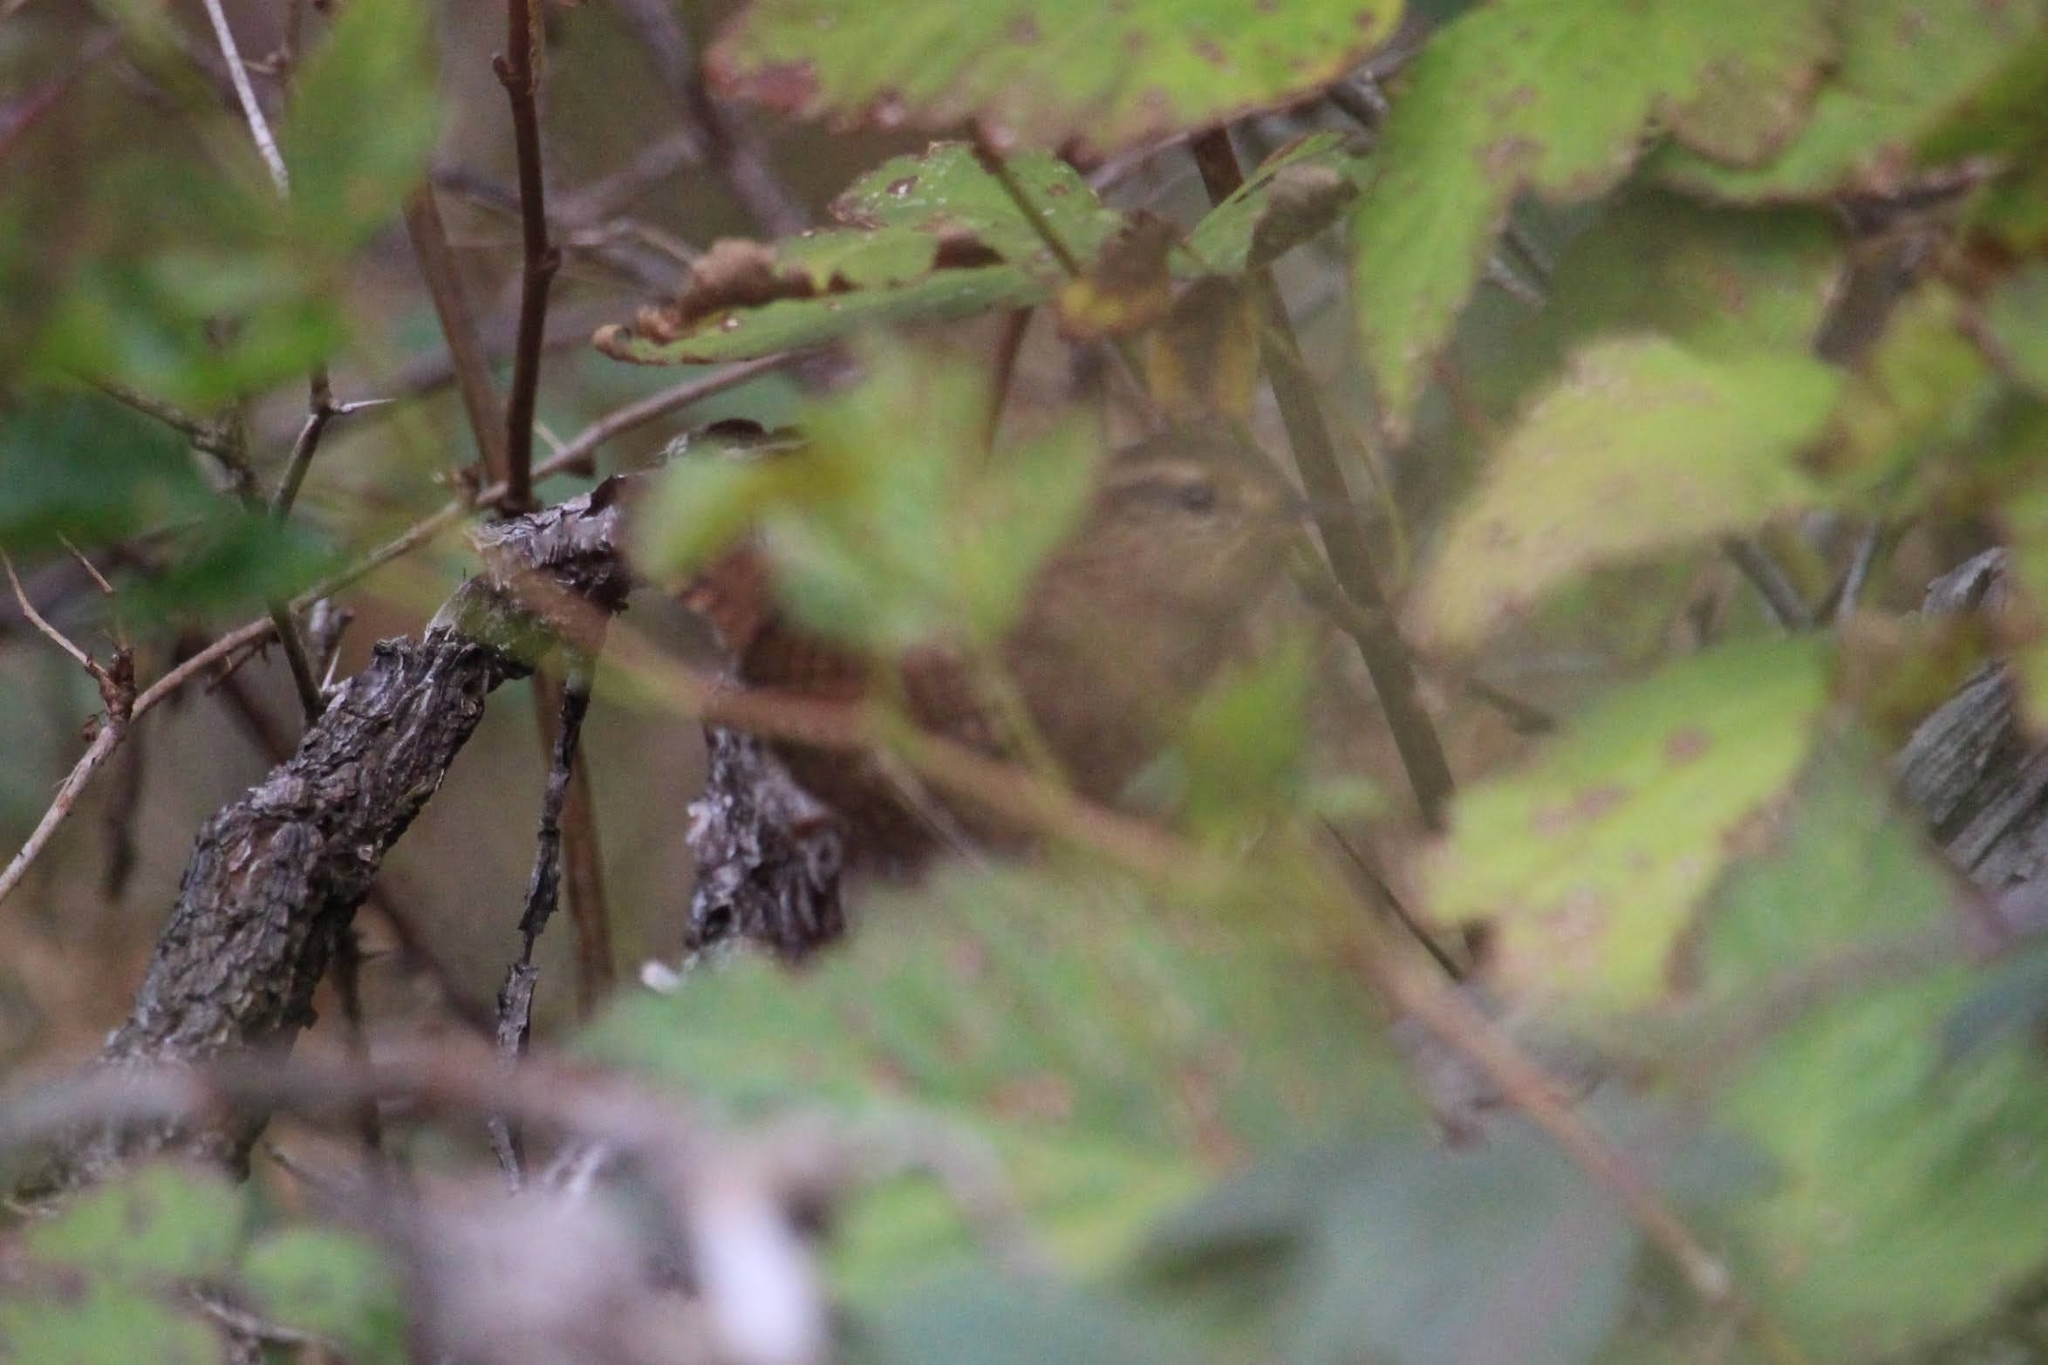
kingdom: Animalia
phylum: Chordata
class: Aves
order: Passeriformes
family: Troglodytidae
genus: Troglodytes
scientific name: Troglodytes pacificus
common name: Pacific wren
